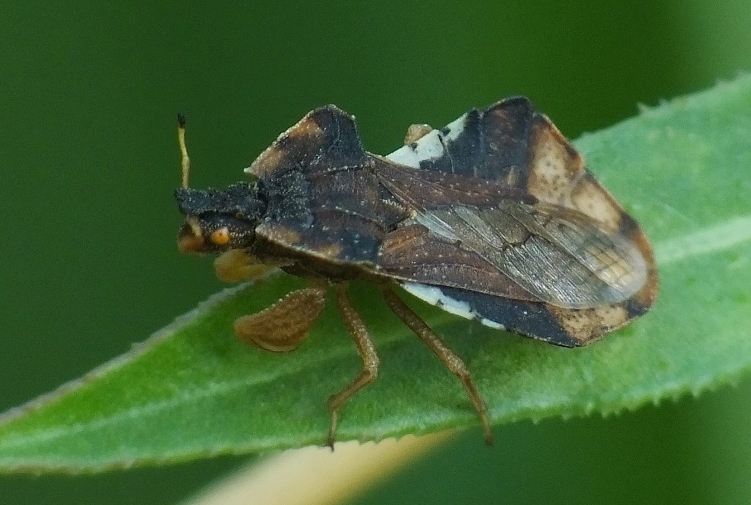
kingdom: Animalia
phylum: Arthropoda
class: Insecta
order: Hemiptera
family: Reduviidae
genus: Phymata
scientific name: Phymata crassipes
